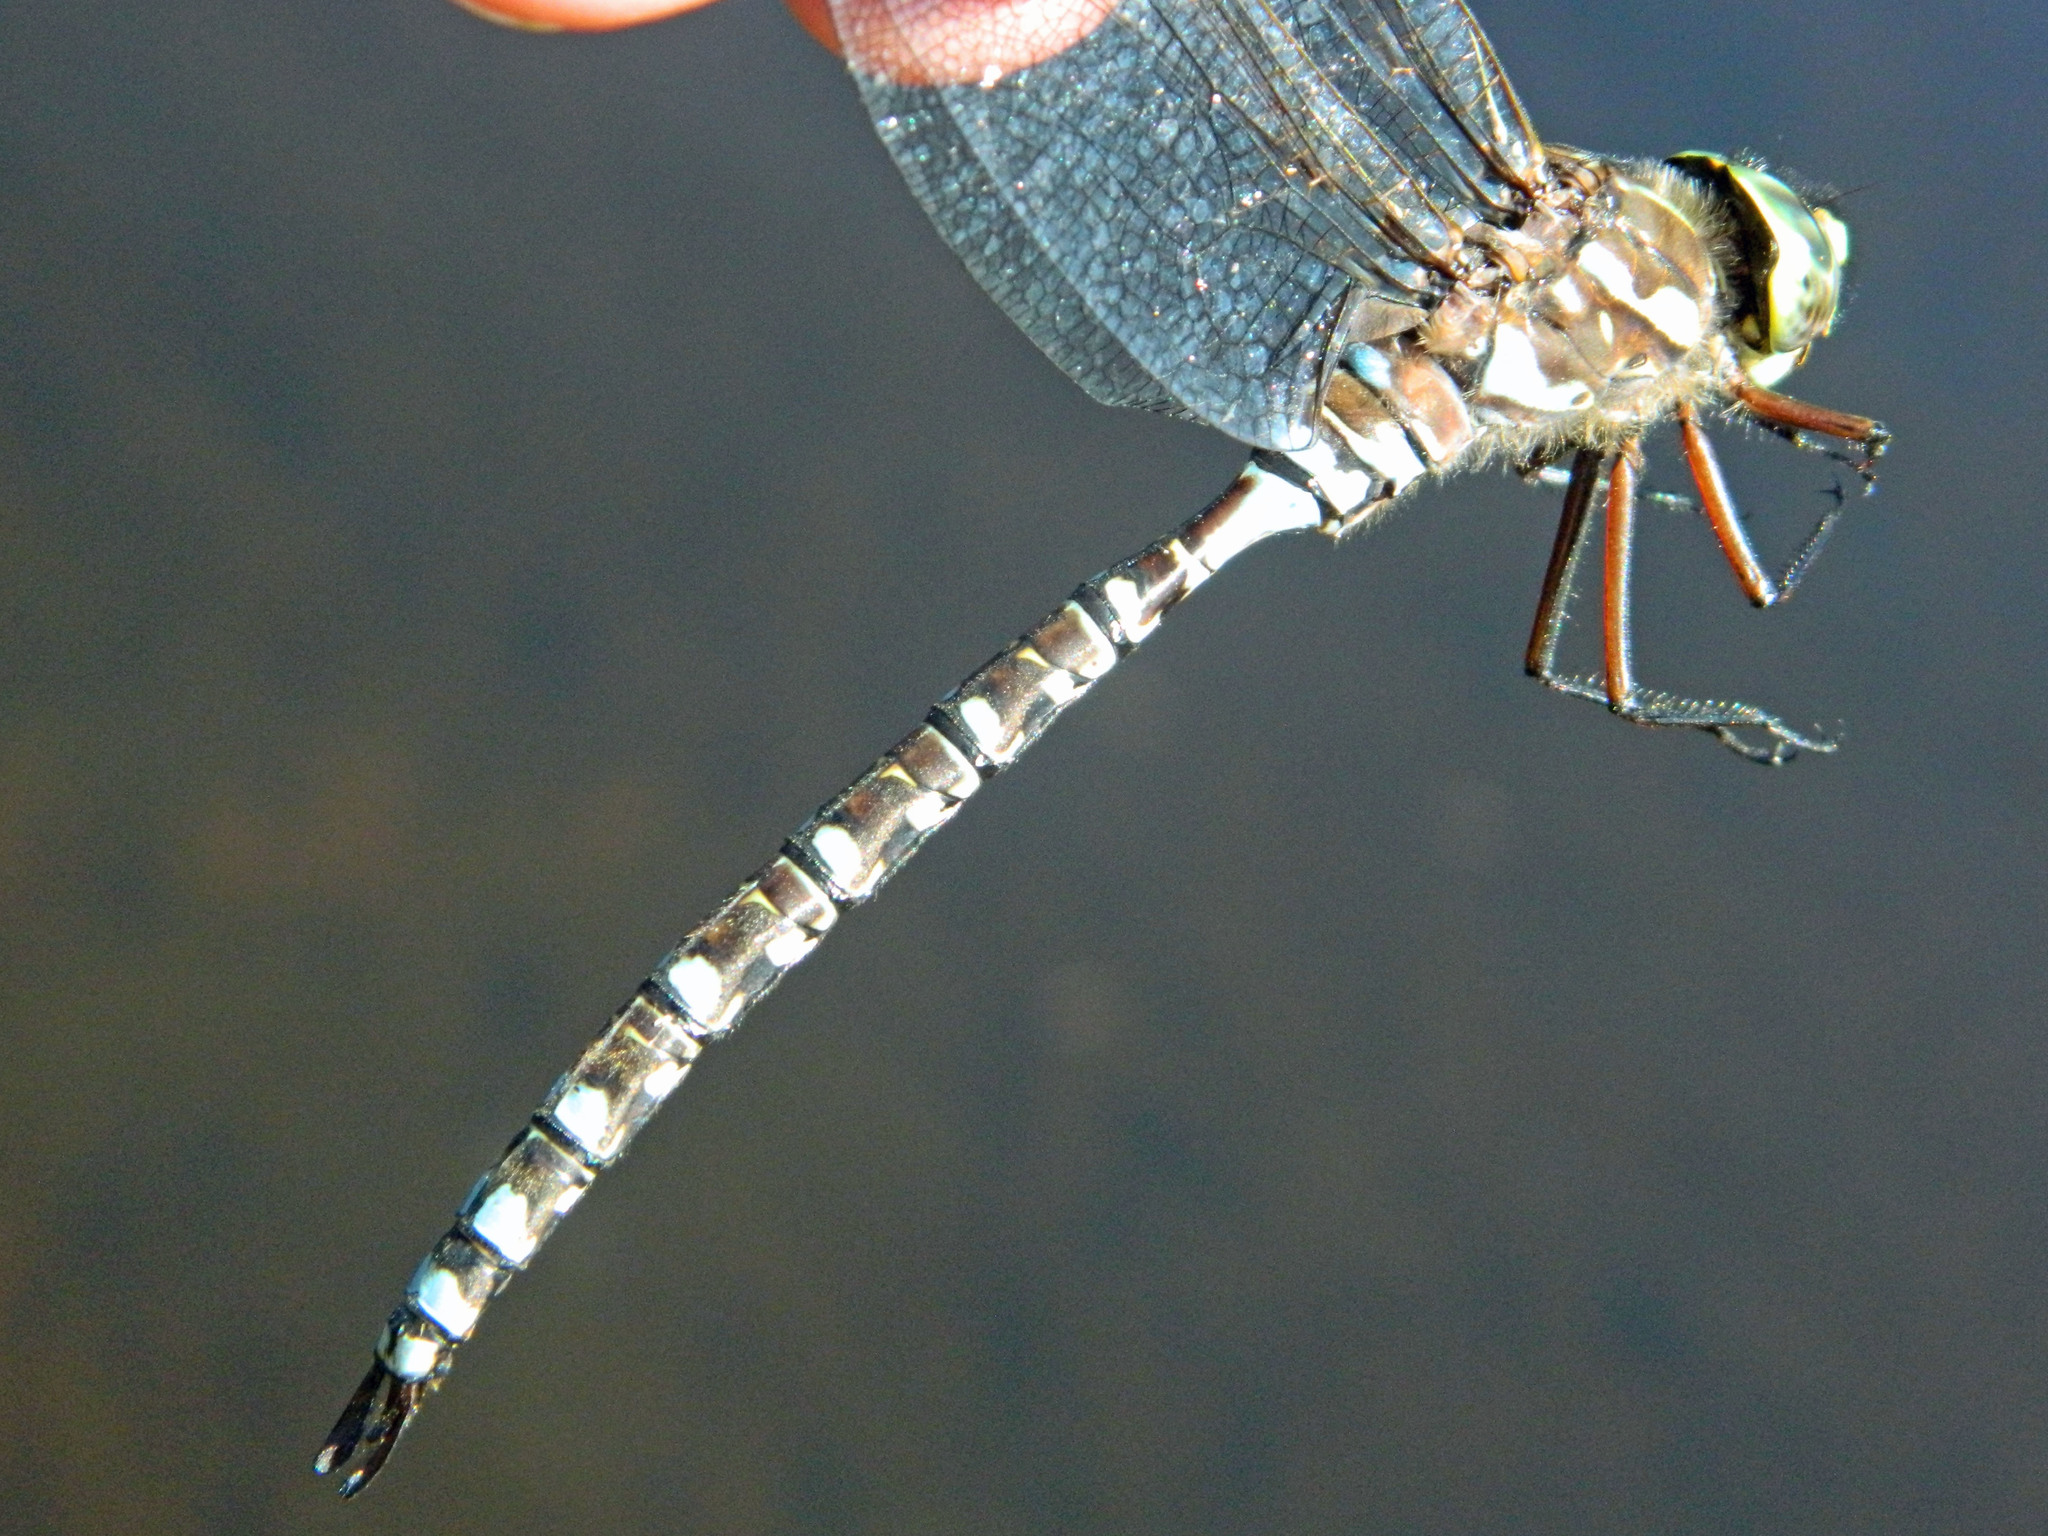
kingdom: Animalia
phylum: Arthropoda
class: Insecta
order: Odonata
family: Aeshnidae
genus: Aeshna
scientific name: Aeshna eremita
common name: Lake darner
